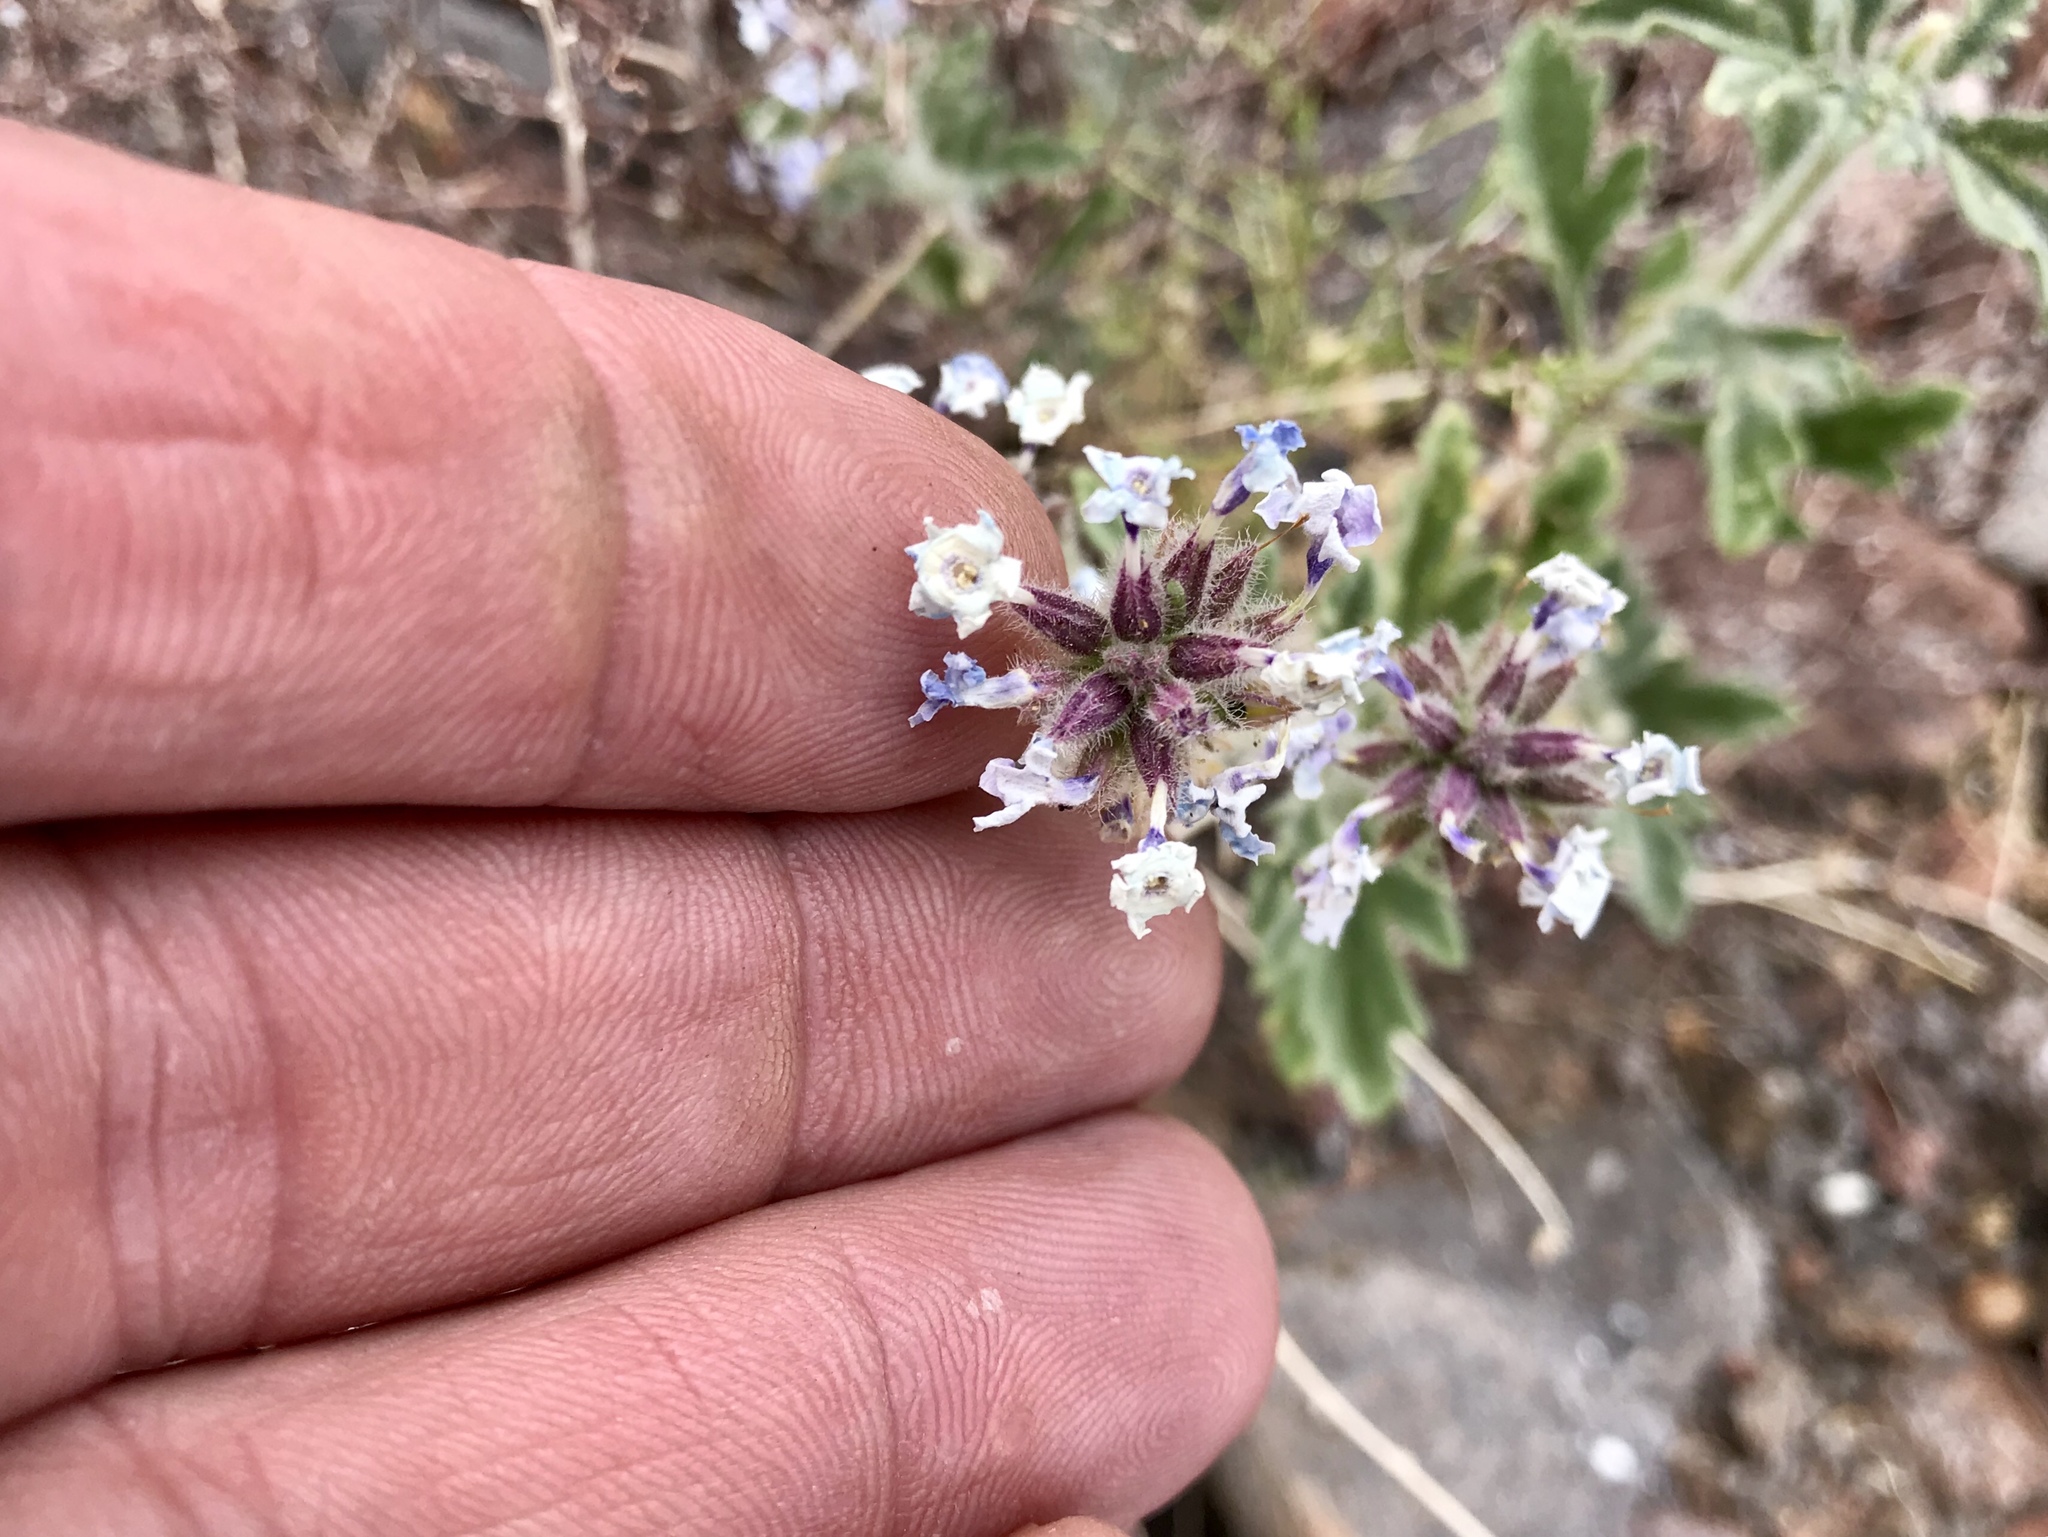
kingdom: Plantae
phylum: Tracheophyta
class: Magnoliopsida
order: Lamiales
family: Verbenaceae
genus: Verbena
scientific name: Verbena gooddingii
